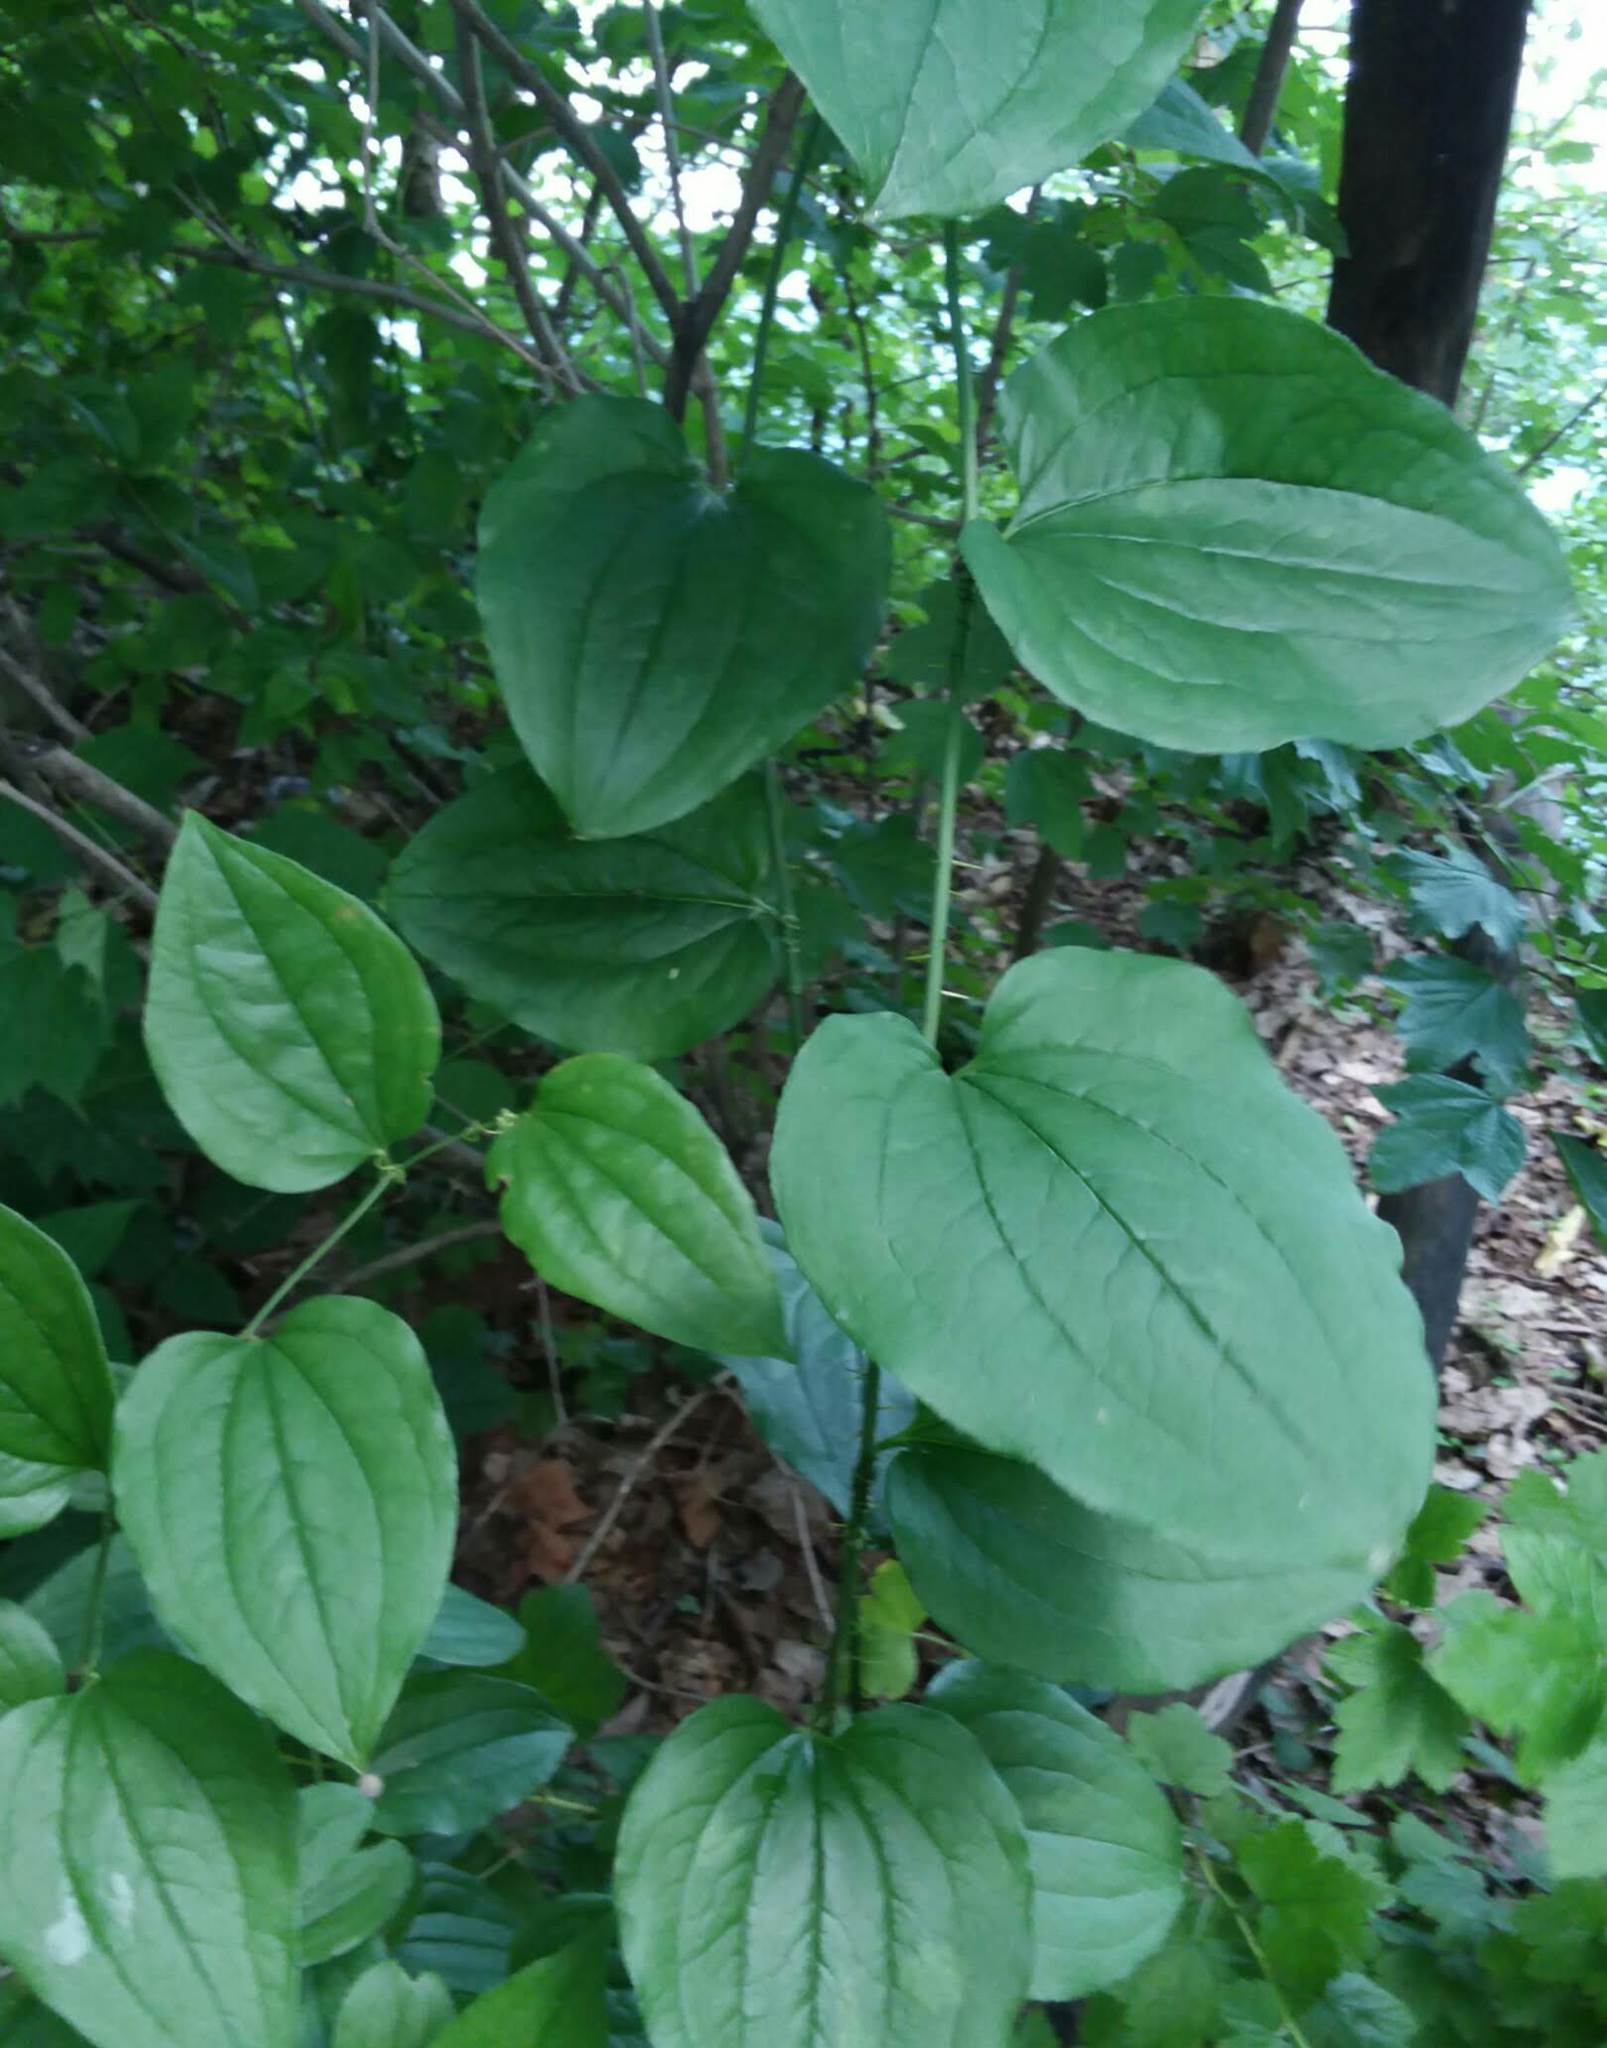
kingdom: Plantae
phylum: Tracheophyta
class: Liliopsida
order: Liliales
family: Smilacaceae
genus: Smilax
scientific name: Smilax tamnoides
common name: Hellfetter
